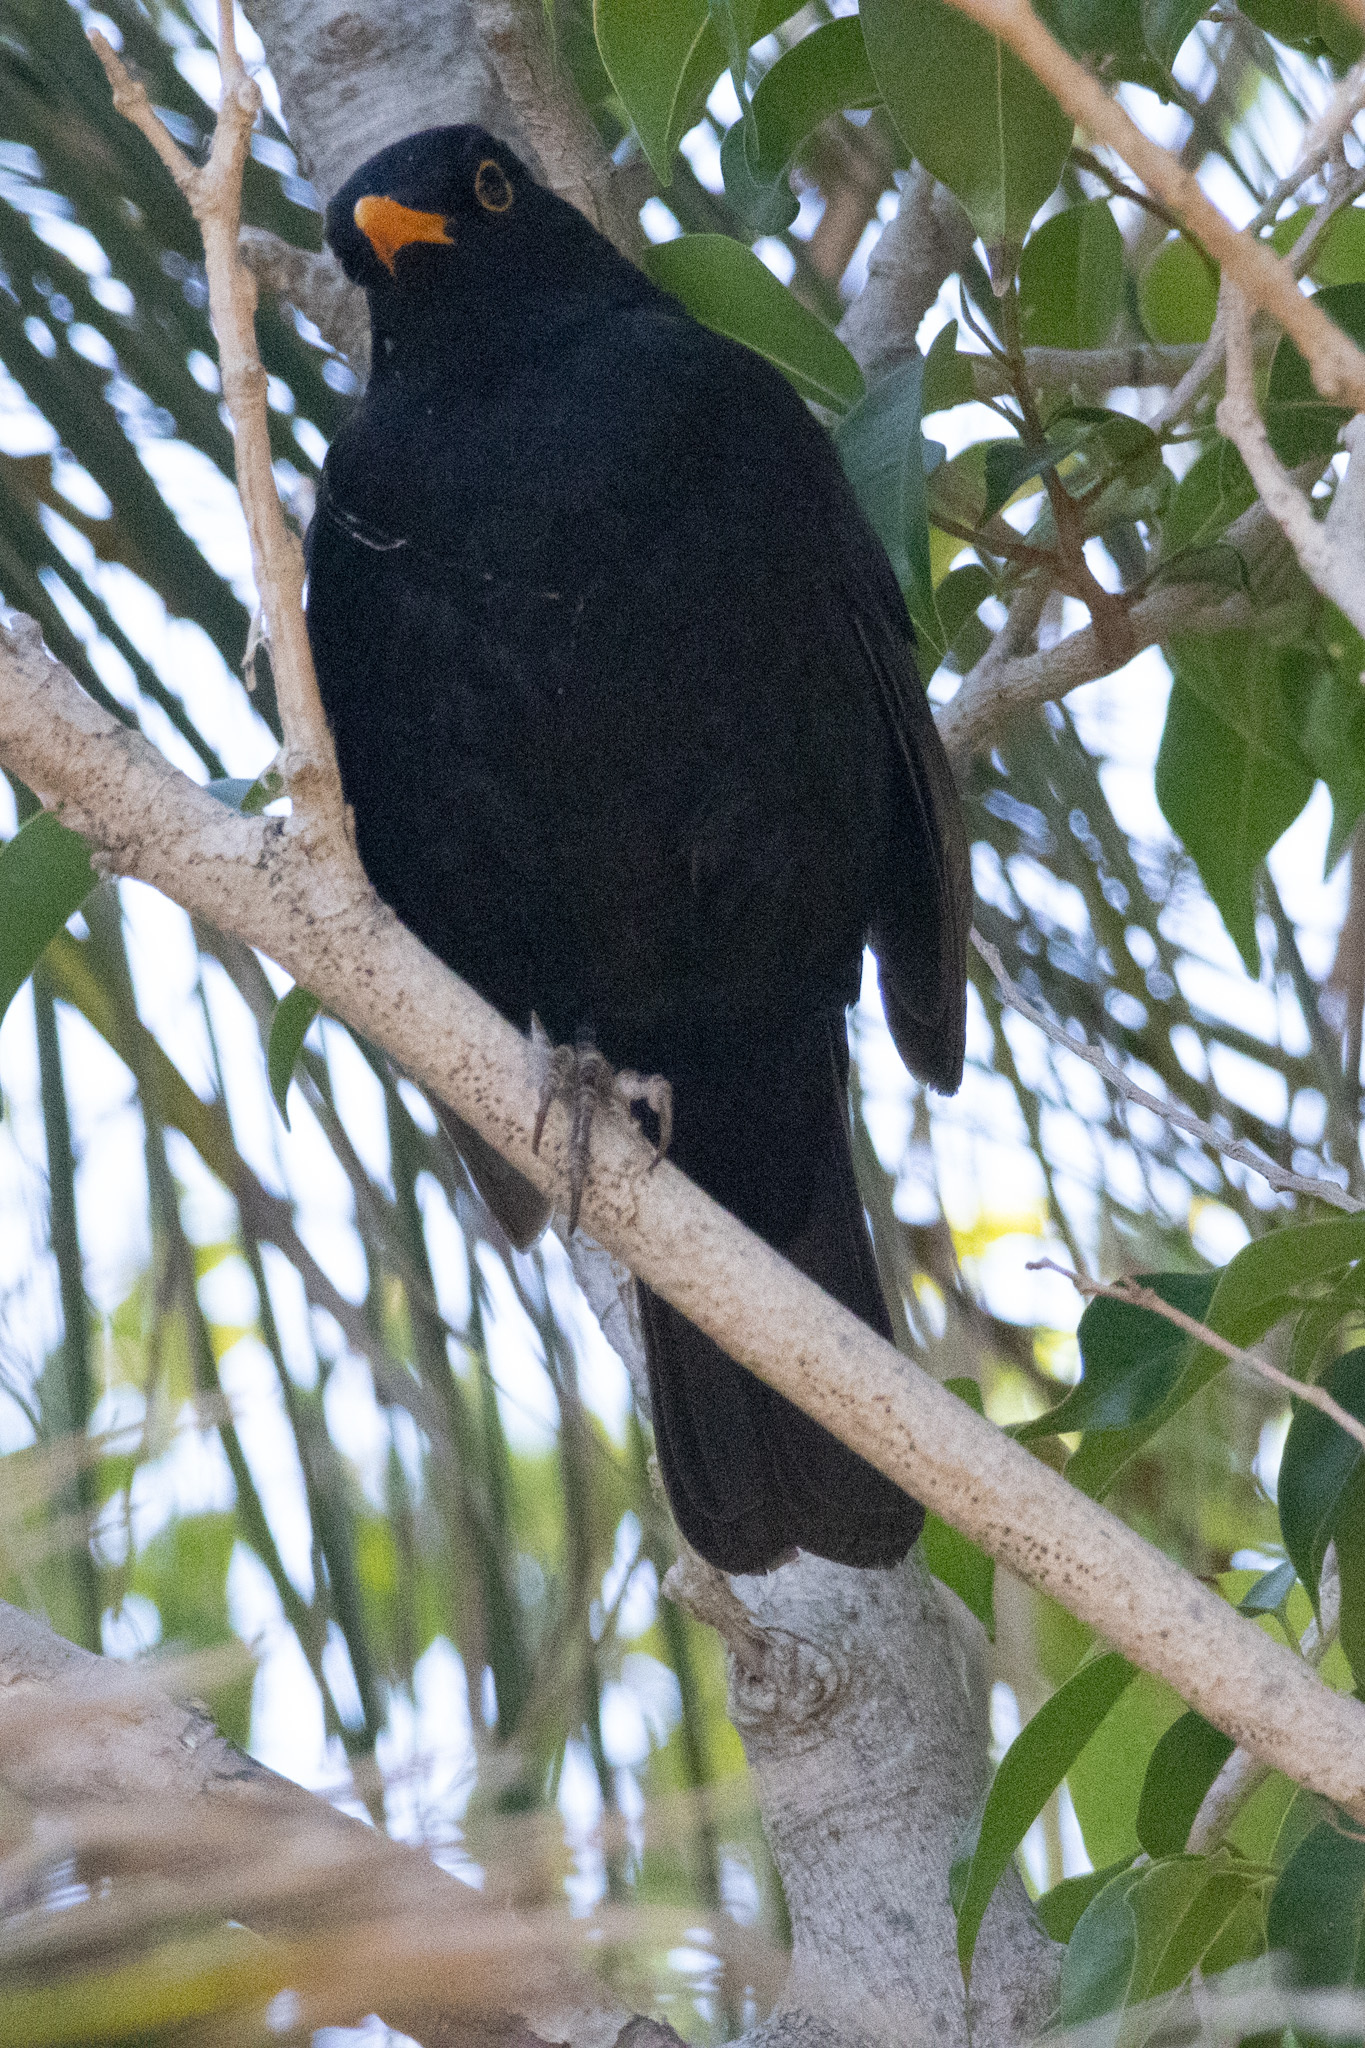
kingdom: Animalia
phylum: Chordata
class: Aves
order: Passeriformes
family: Turdidae
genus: Turdus
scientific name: Turdus merula
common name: Common blackbird
